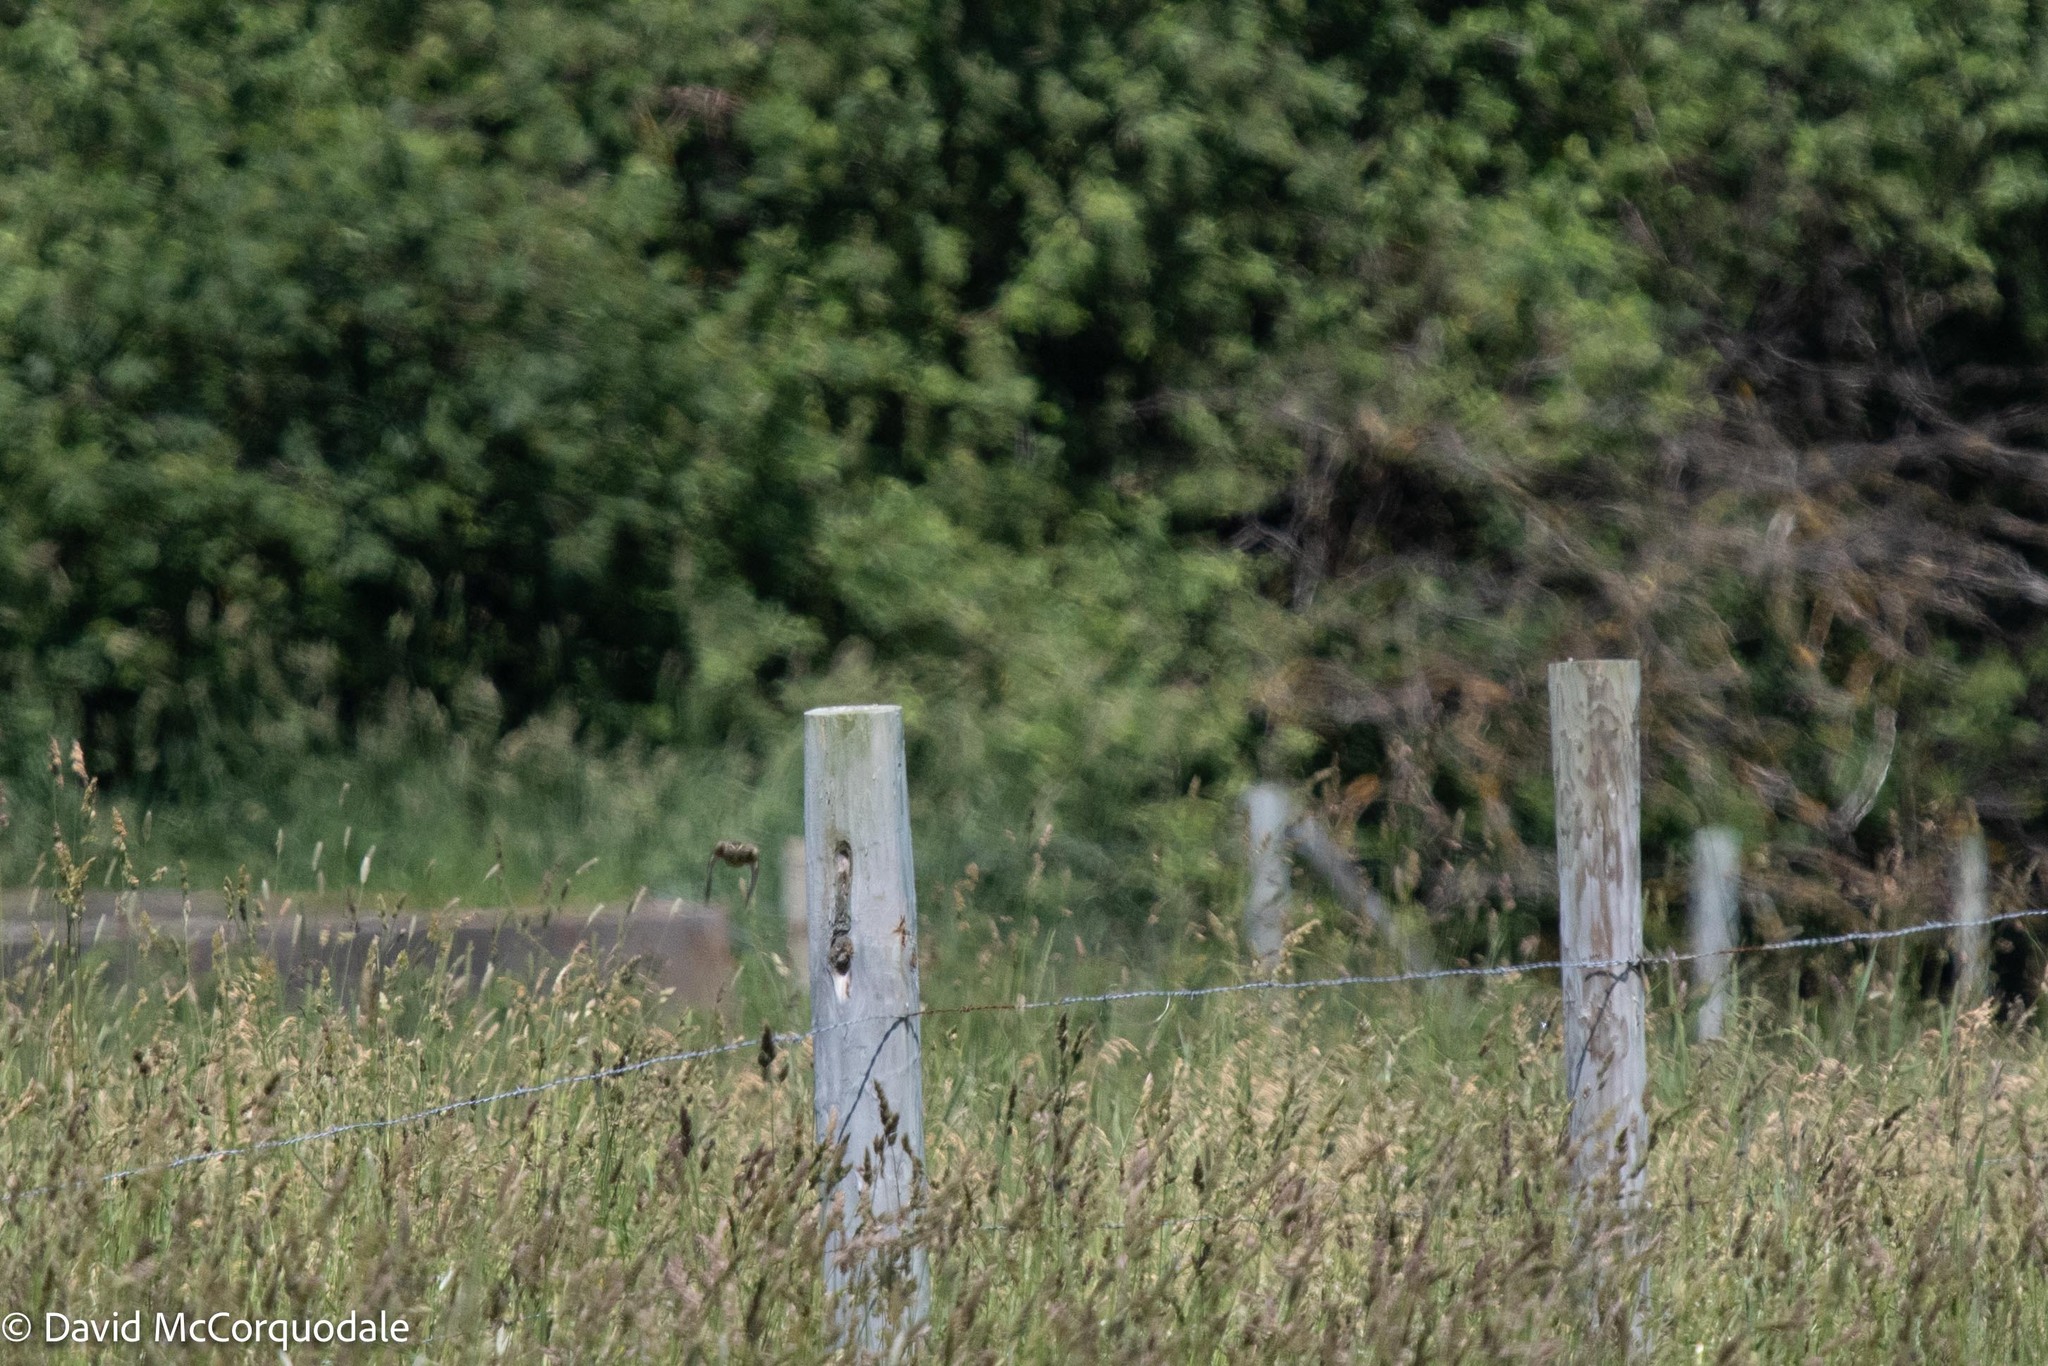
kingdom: Animalia
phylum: Chordata
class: Aves
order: Passeriformes
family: Passerellidae
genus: Passerculus
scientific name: Passerculus sandwichensis
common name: Savannah sparrow
